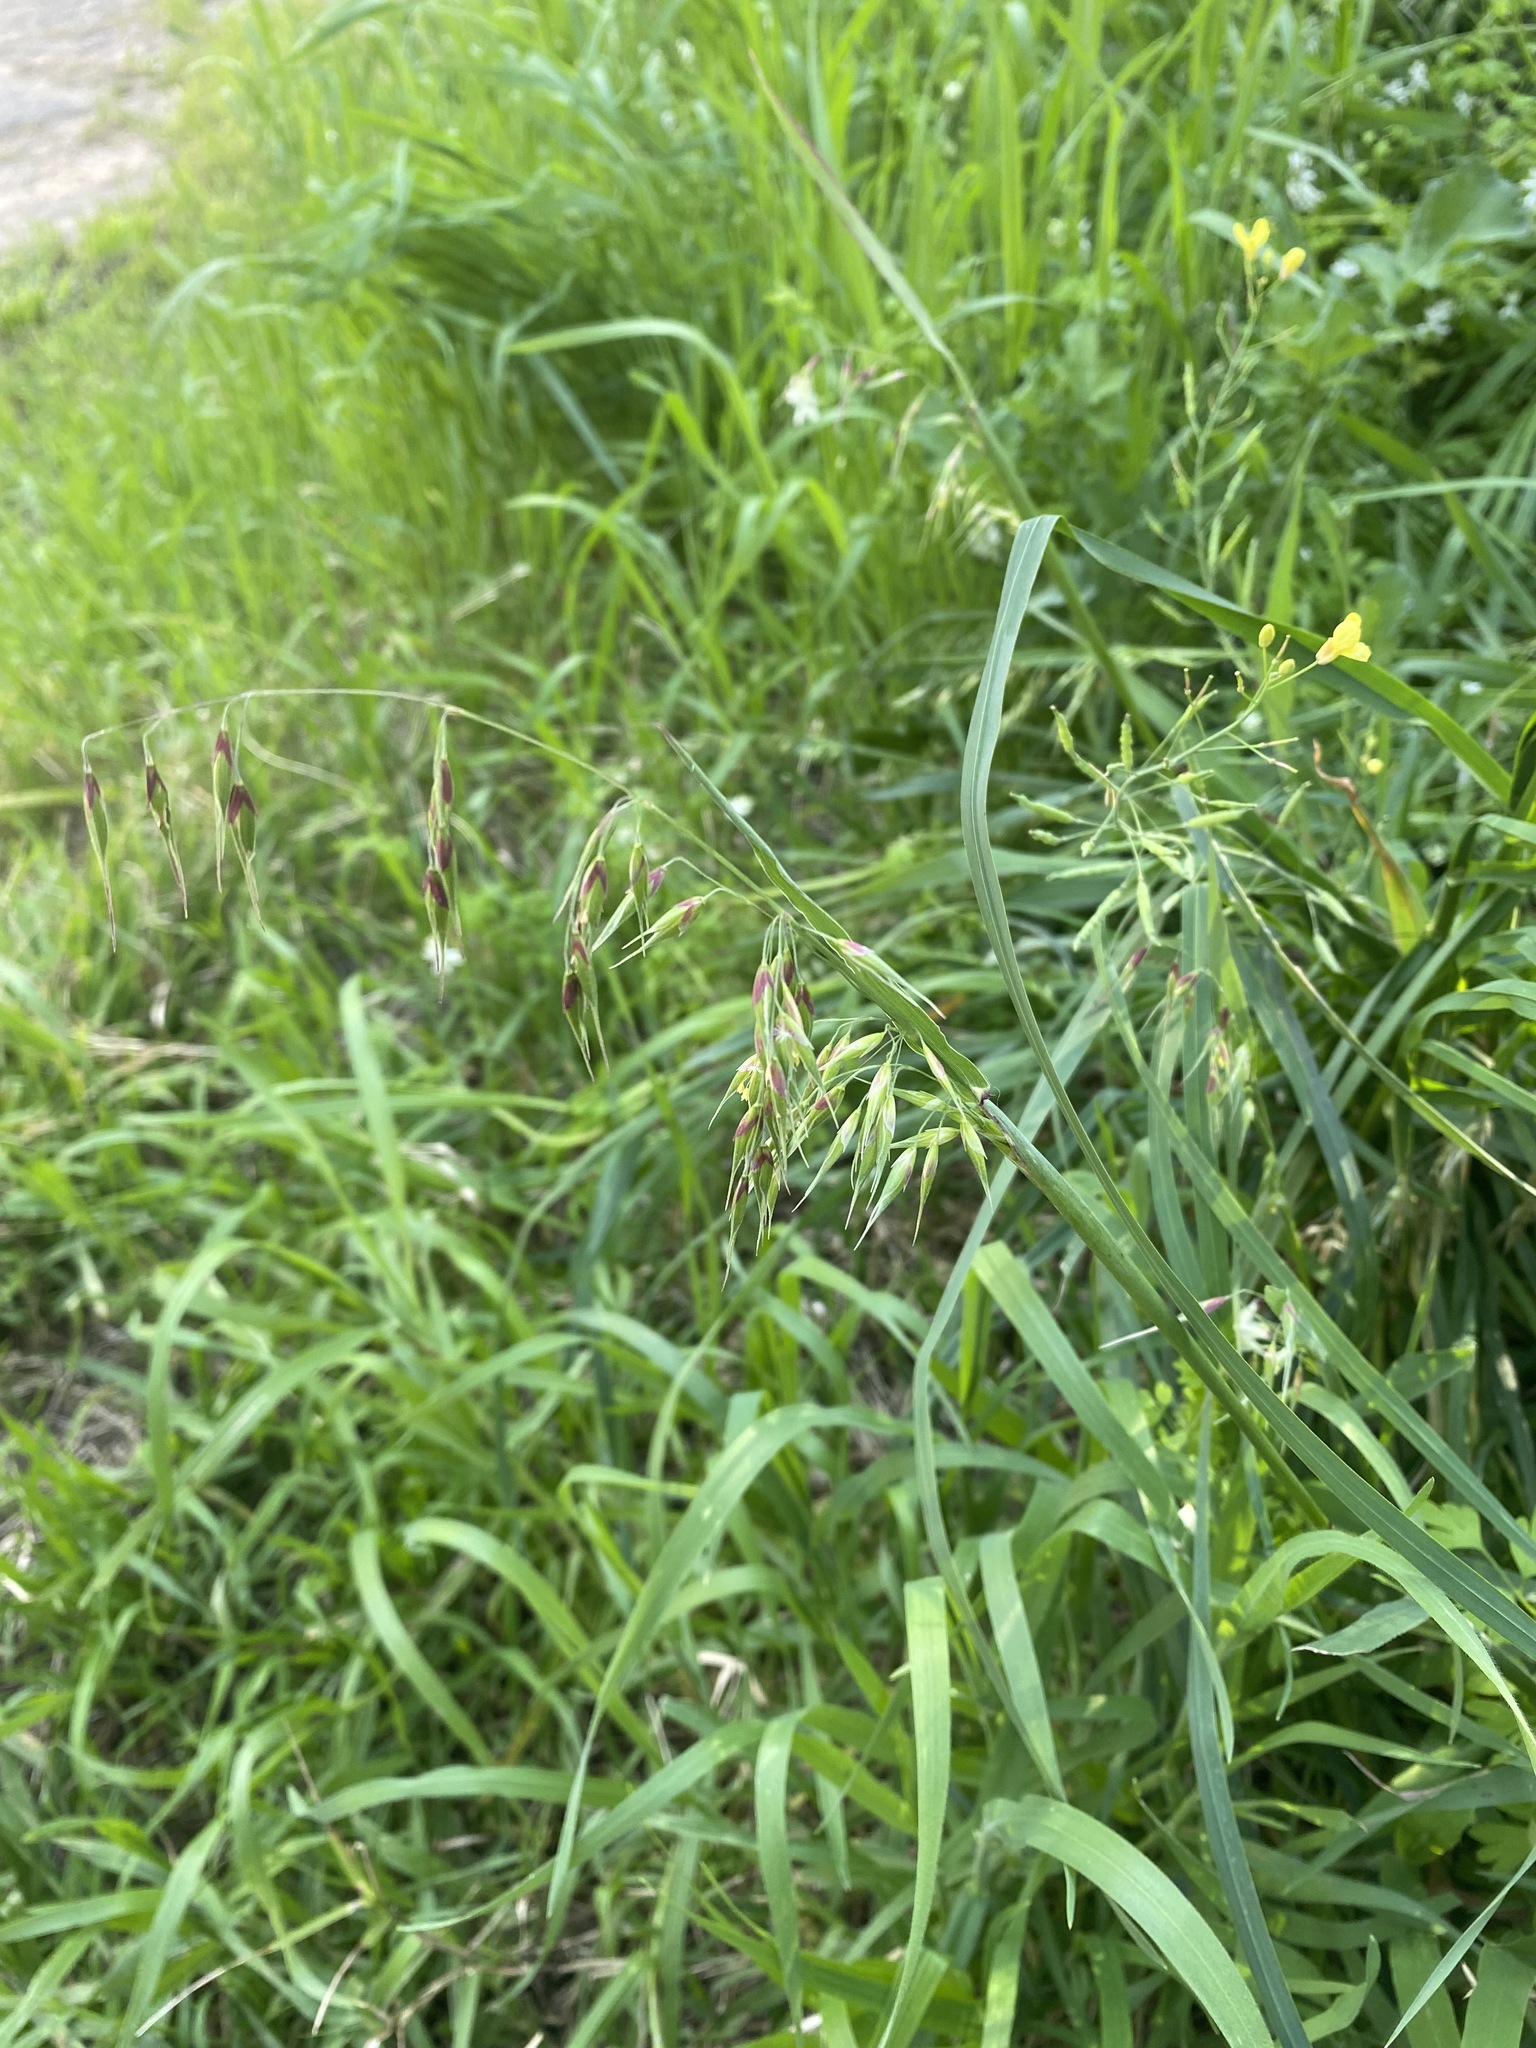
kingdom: Plantae
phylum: Tracheophyta
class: Liliopsida
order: Poales
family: Poaceae
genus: Ehrharta
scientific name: Ehrharta longiflora
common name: Longflowered veldtgrass
